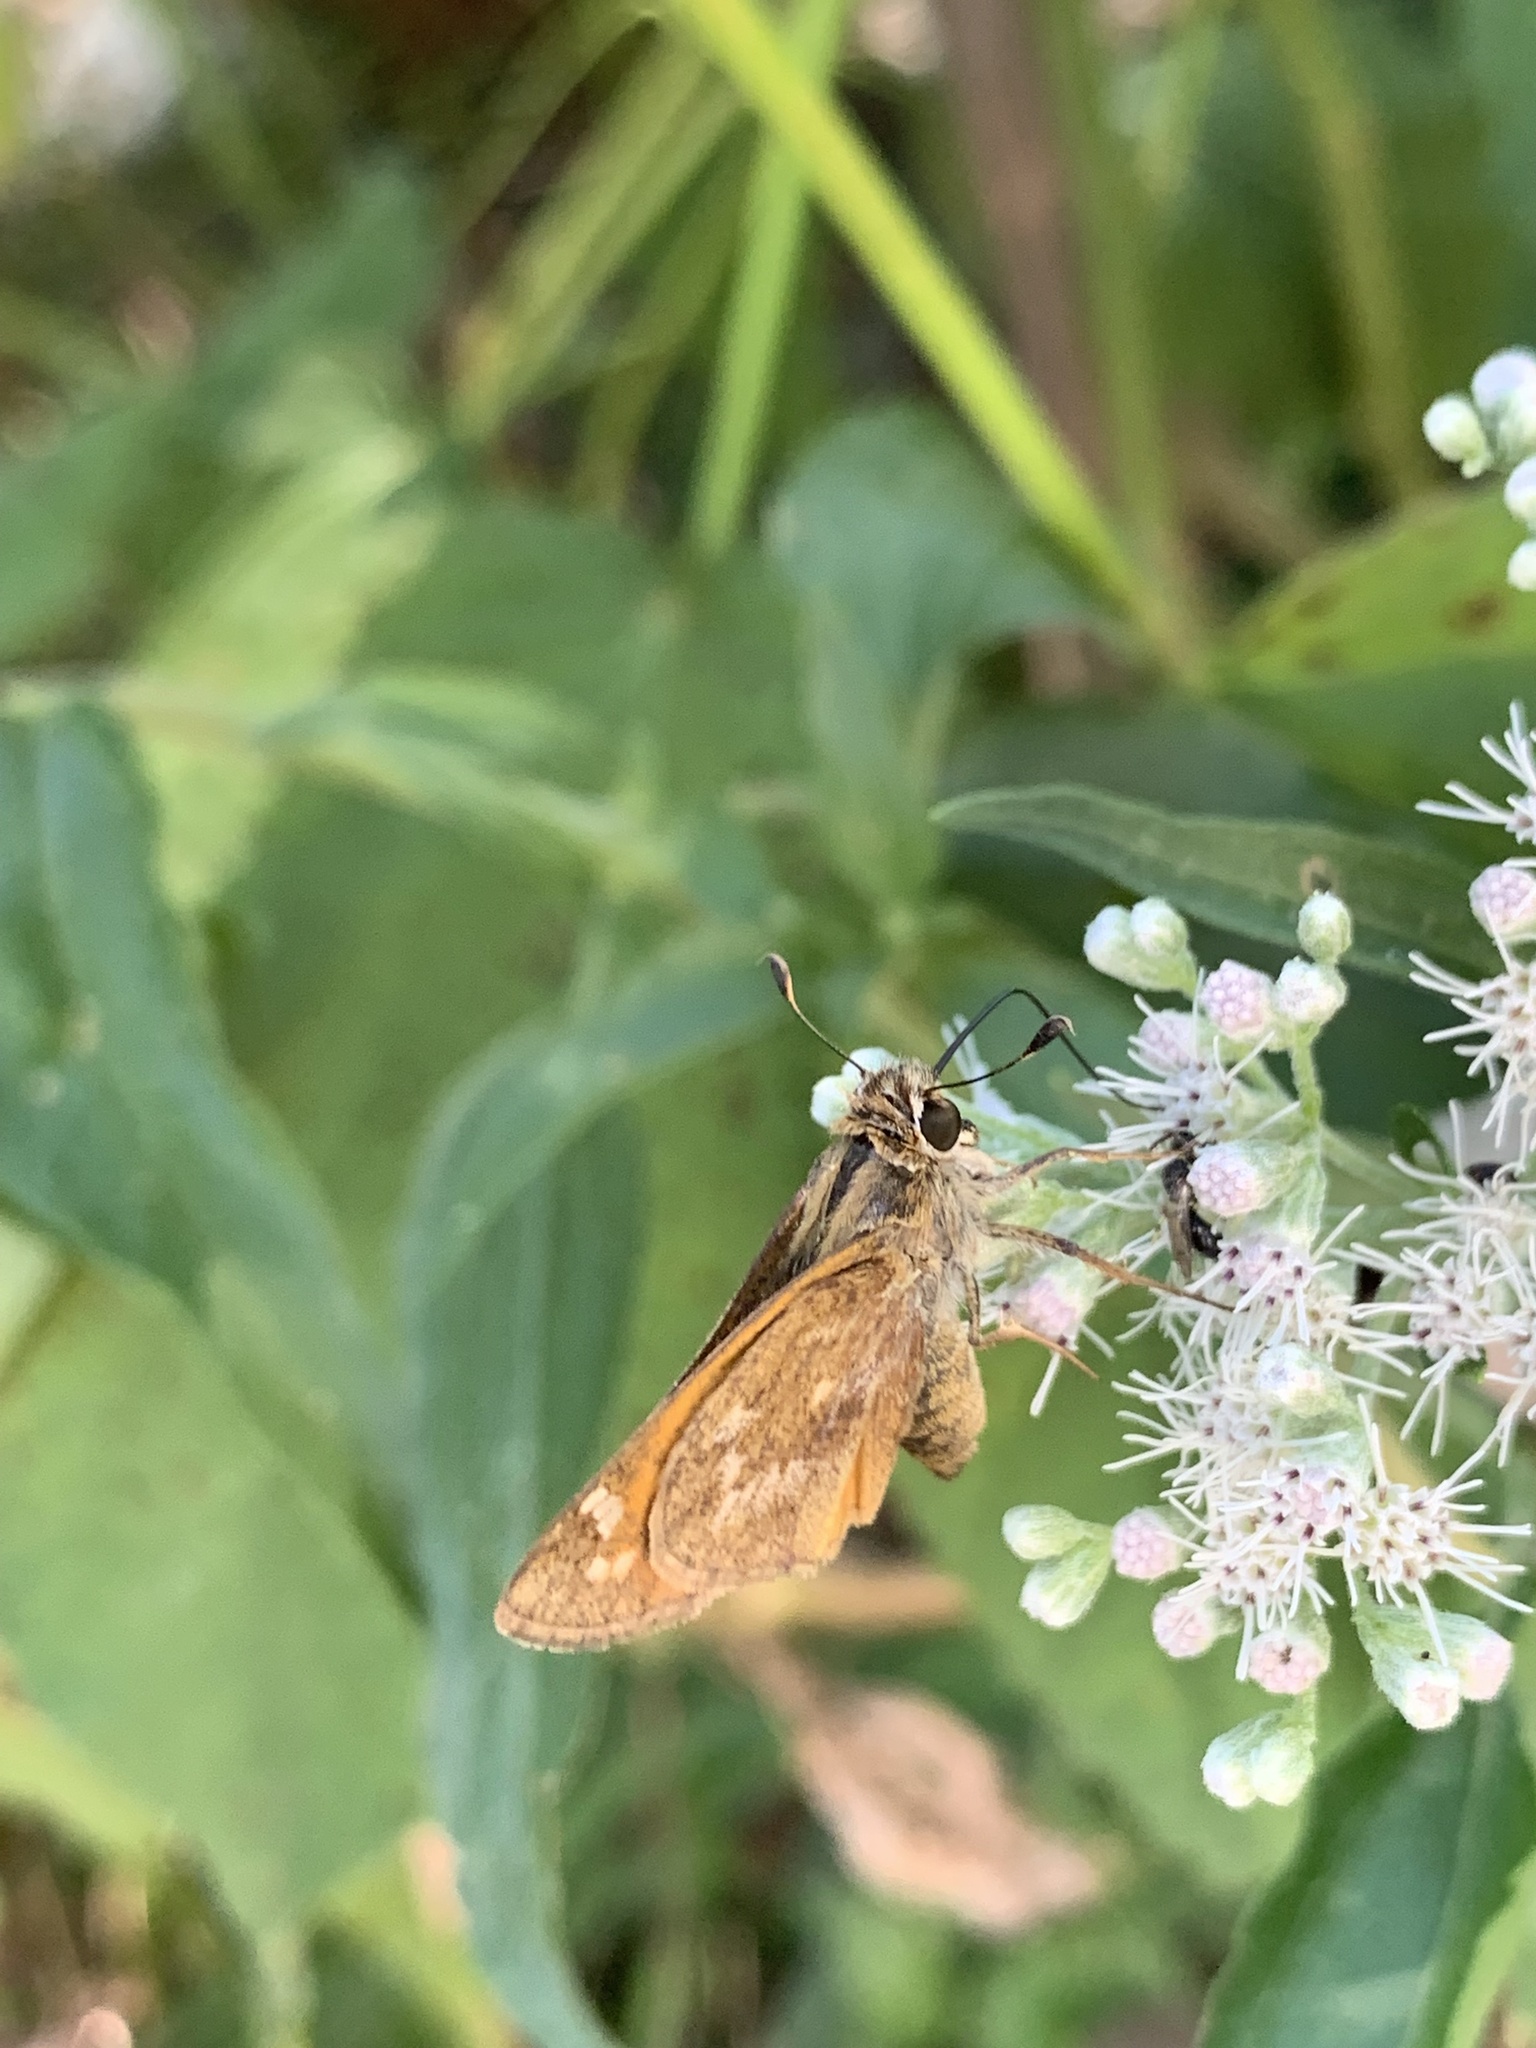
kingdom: Animalia
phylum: Arthropoda
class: Insecta
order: Lepidoptera
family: Hesperiidae
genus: Atalopedes
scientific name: Atalopedes
